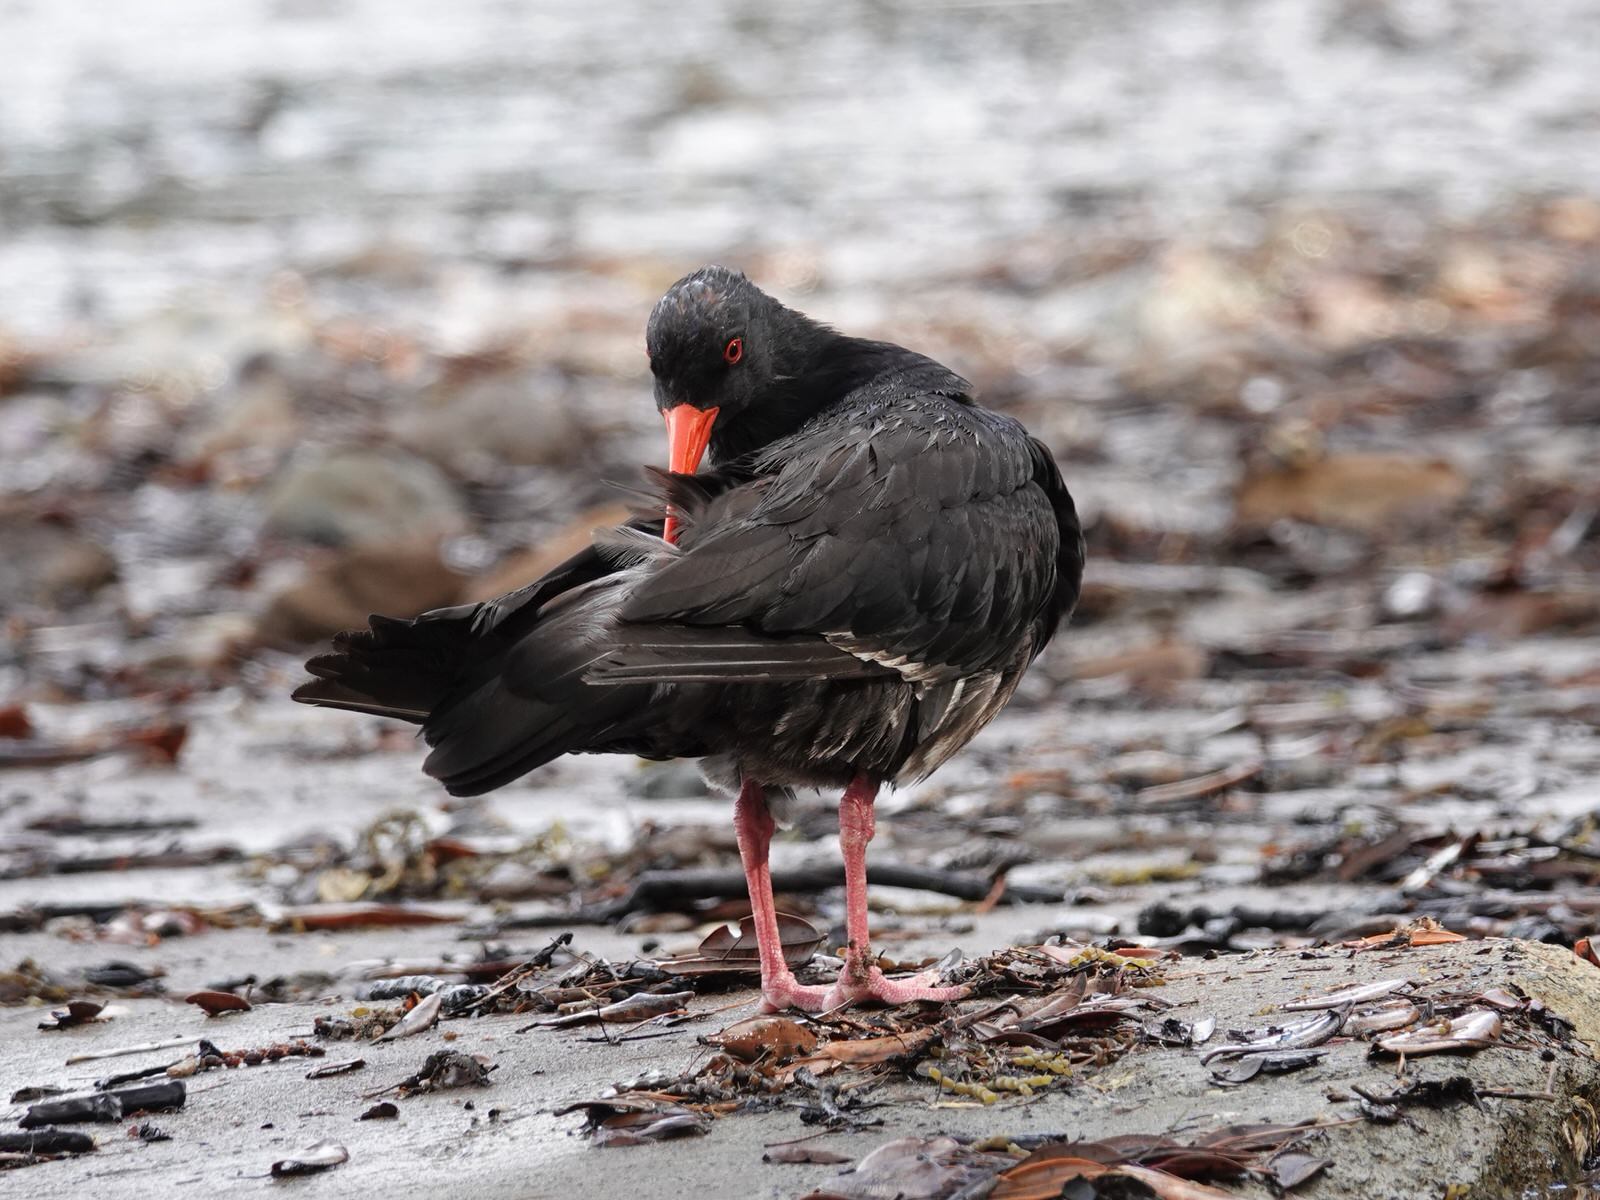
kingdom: Animalia
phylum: Chordata
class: Aves
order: Charadriiformes
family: Haematopodidae
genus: Haematopus
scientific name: Haematopus unicolor
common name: Variable oystercatcher
